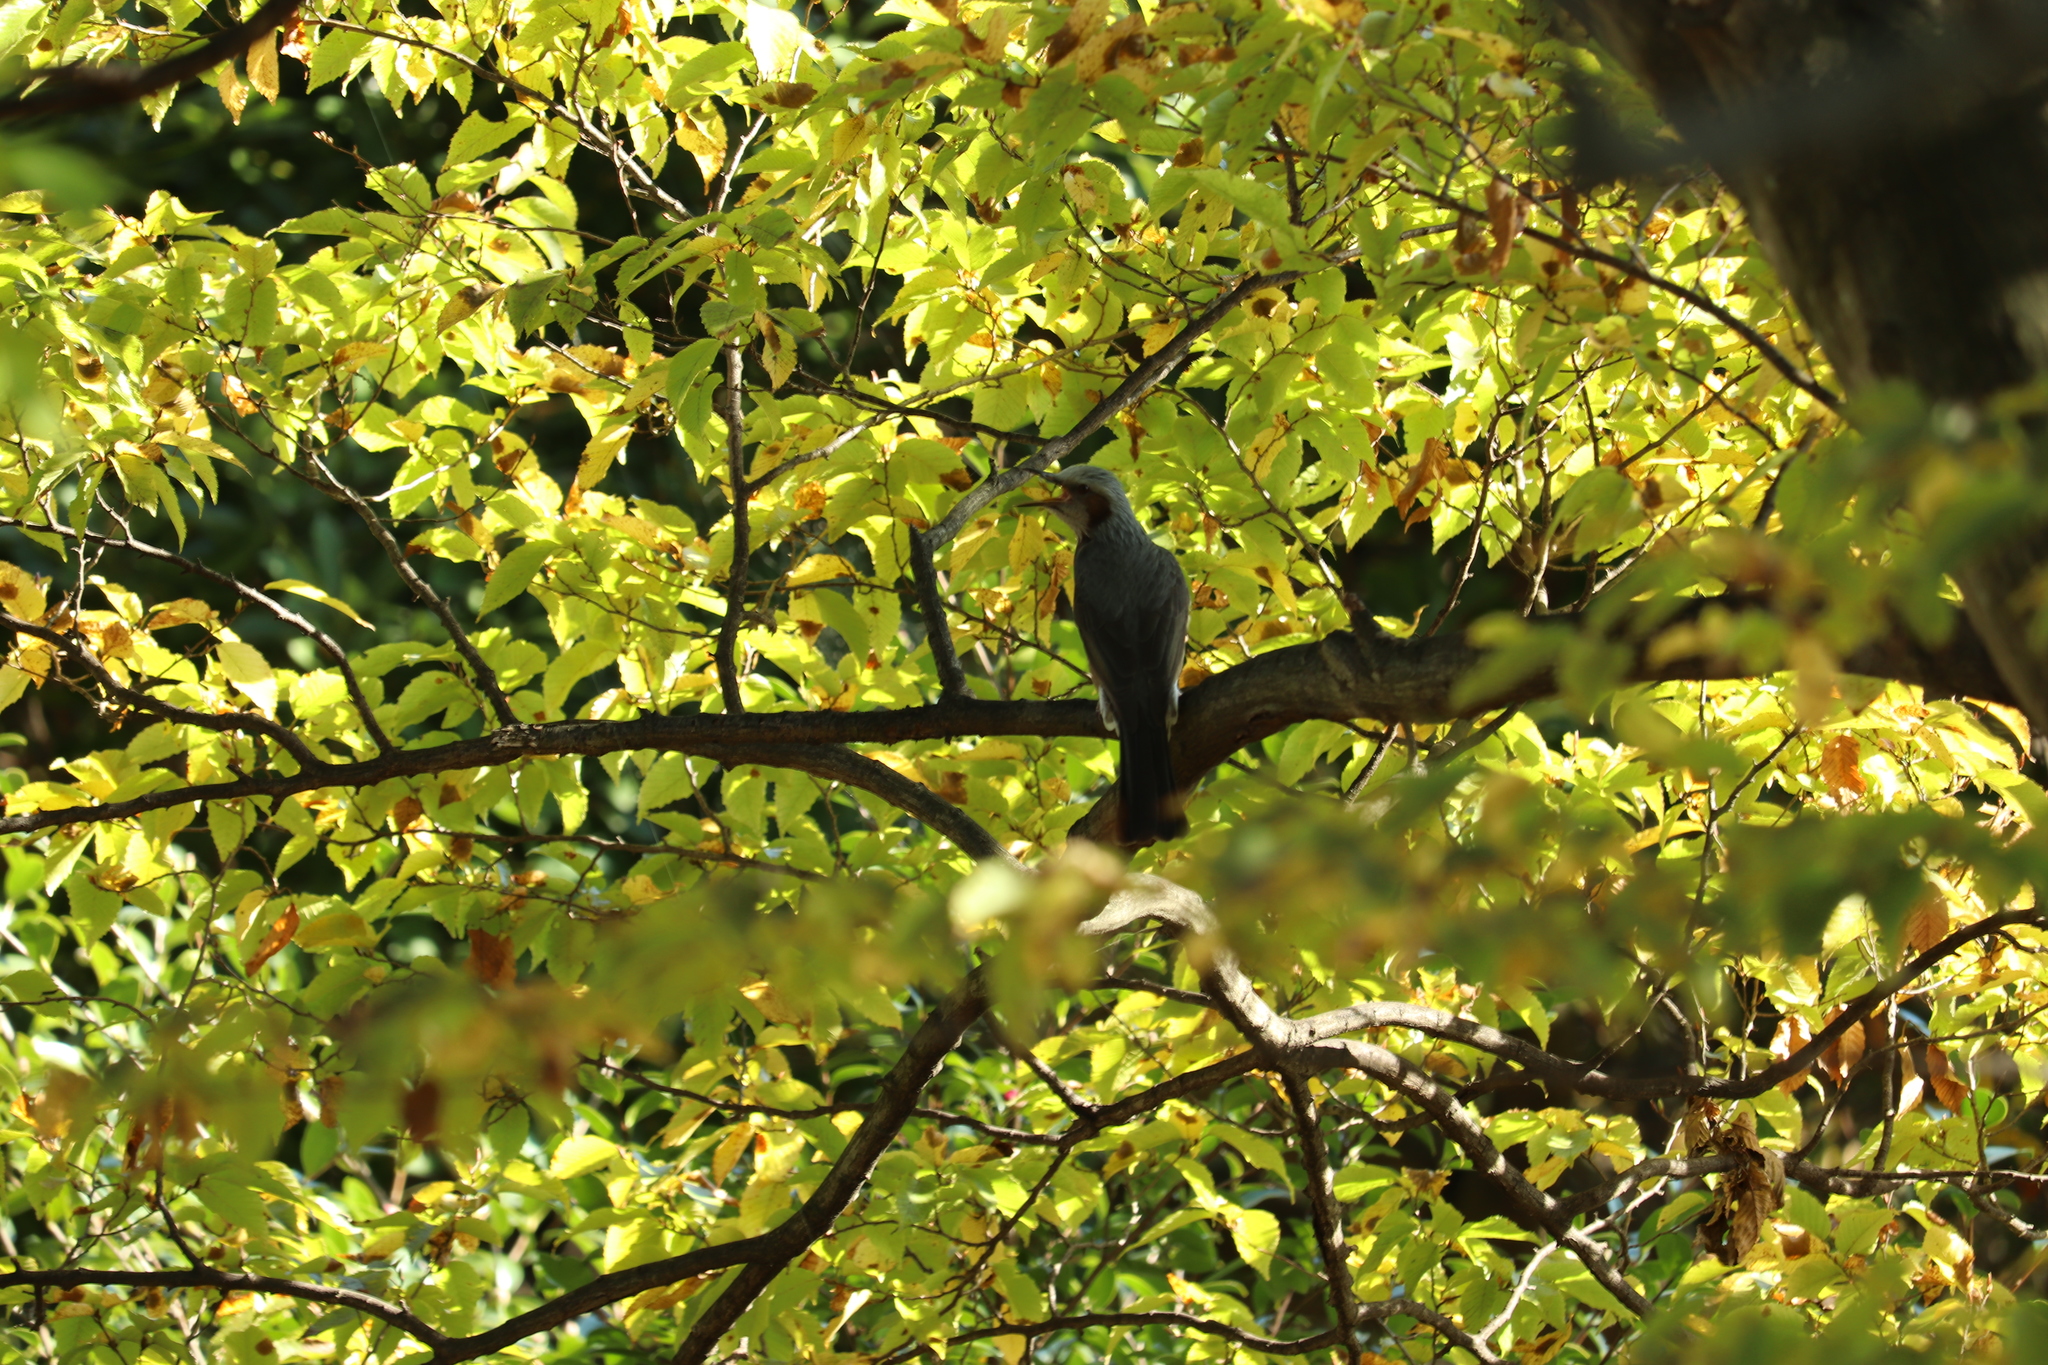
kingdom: Animalia
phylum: Chordata
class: Aves
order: Passeriformes
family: Pycnonotidae
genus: Hypsipetes
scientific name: Hypsipetes amaurotis
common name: Brown-eared bulbul
